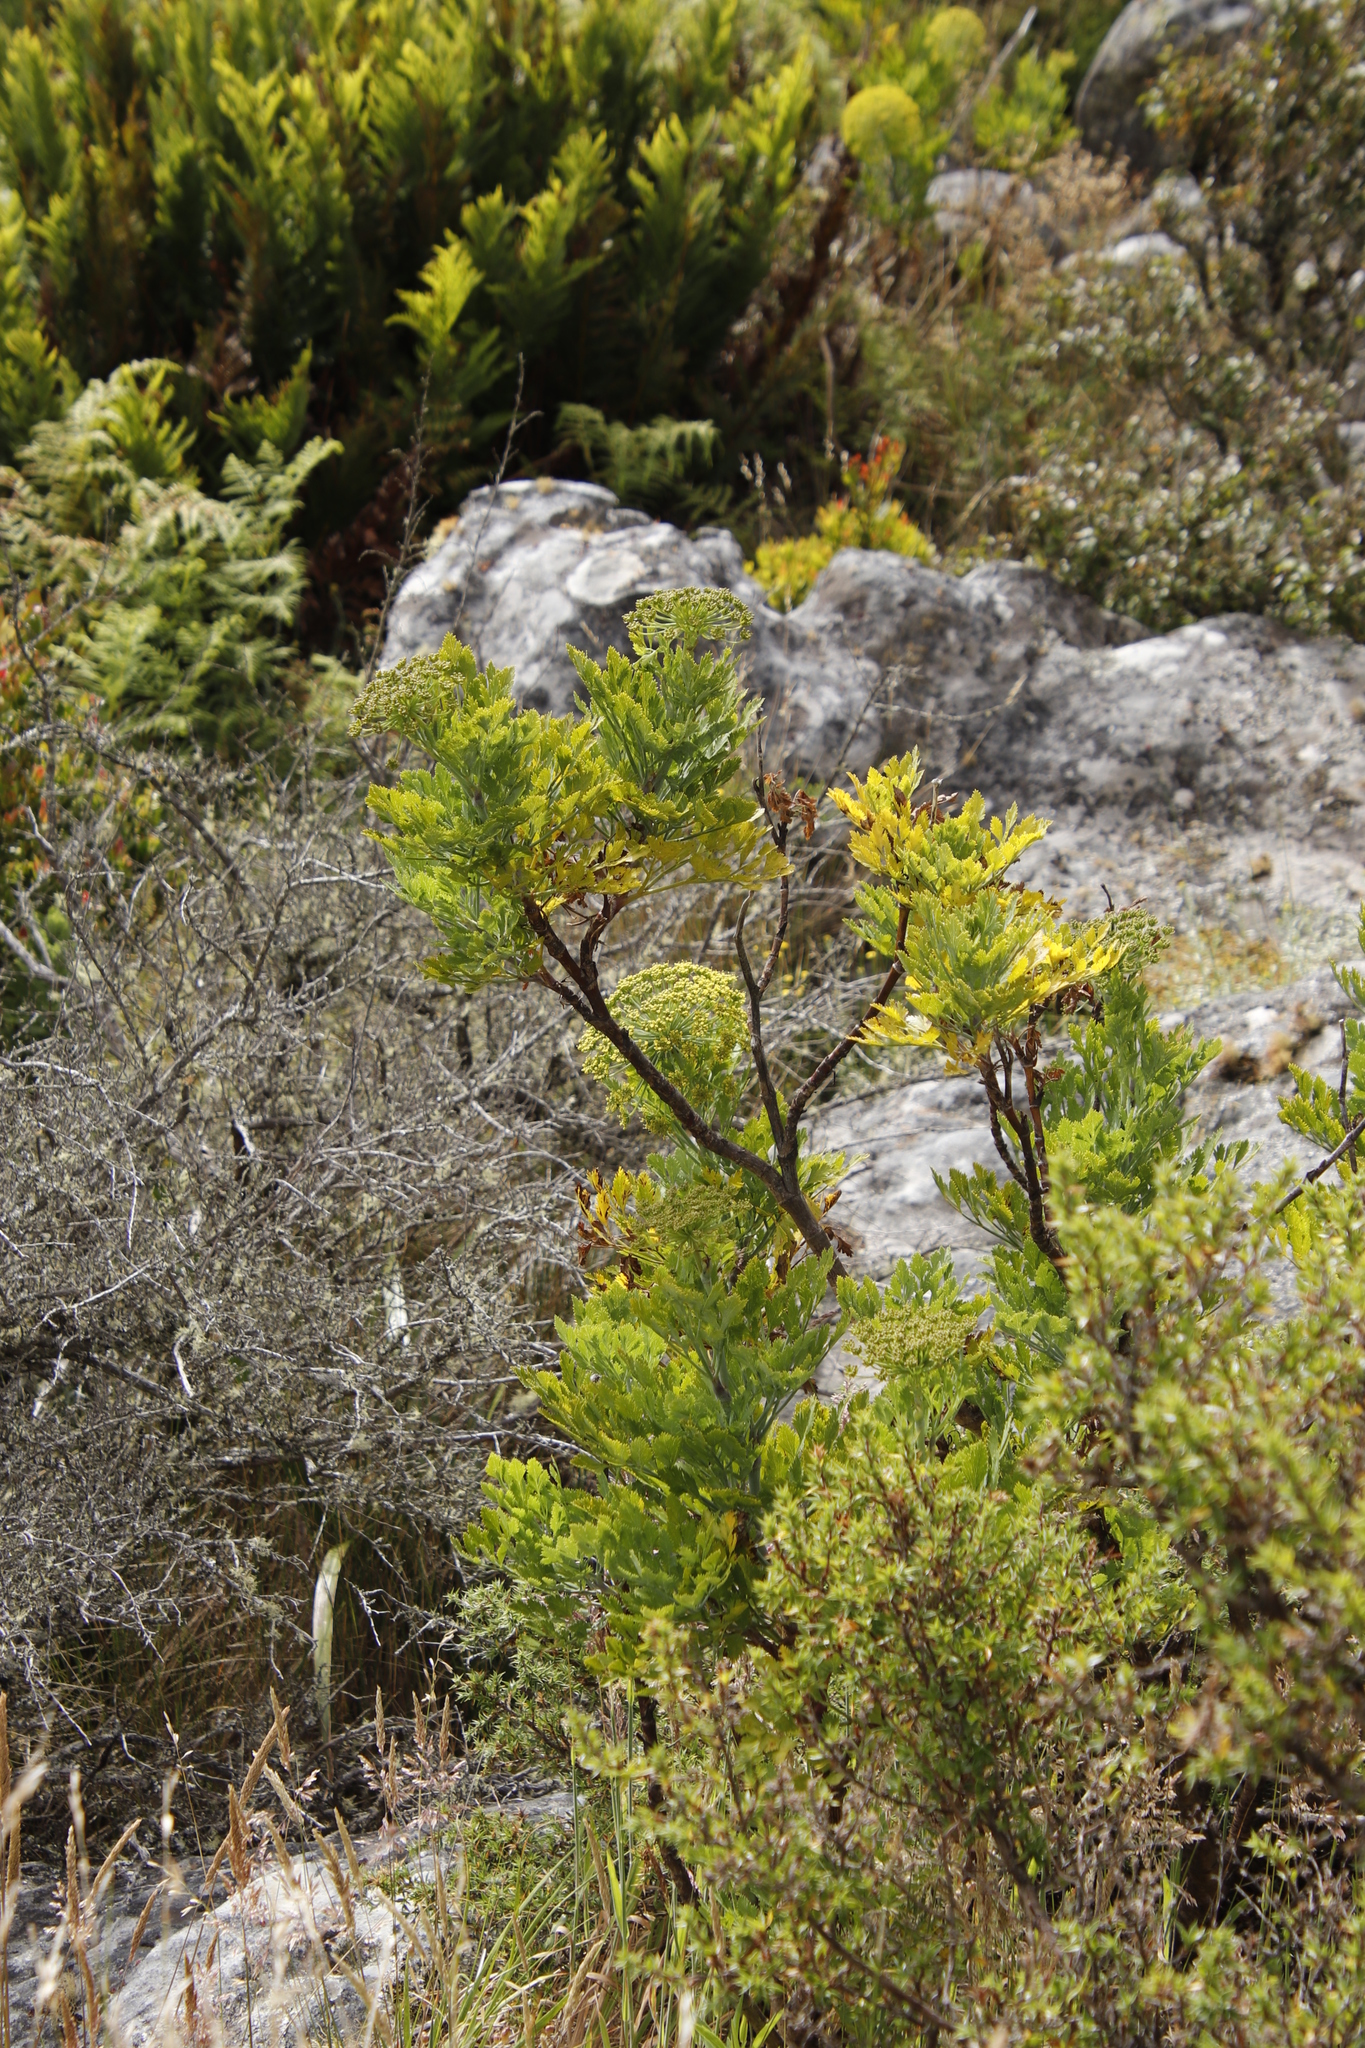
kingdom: Plantae
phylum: Tracheophyta
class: Magnoliopsida
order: Apiales
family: Apiaceae
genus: Notobubon
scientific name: Notobubon galbanum
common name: Blisterbush
